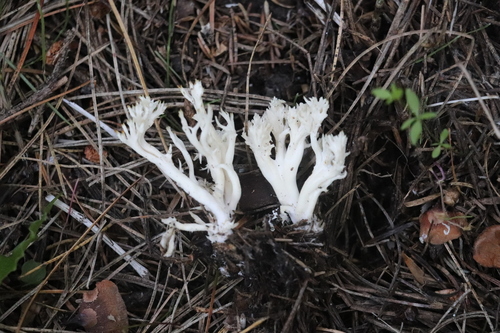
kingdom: Fungi
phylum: Basidiomycota
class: Agaricomycetes
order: Cantharellales
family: Hydnaceae
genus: Clavulina
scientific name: Clavulina coralloides
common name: Crested coral
